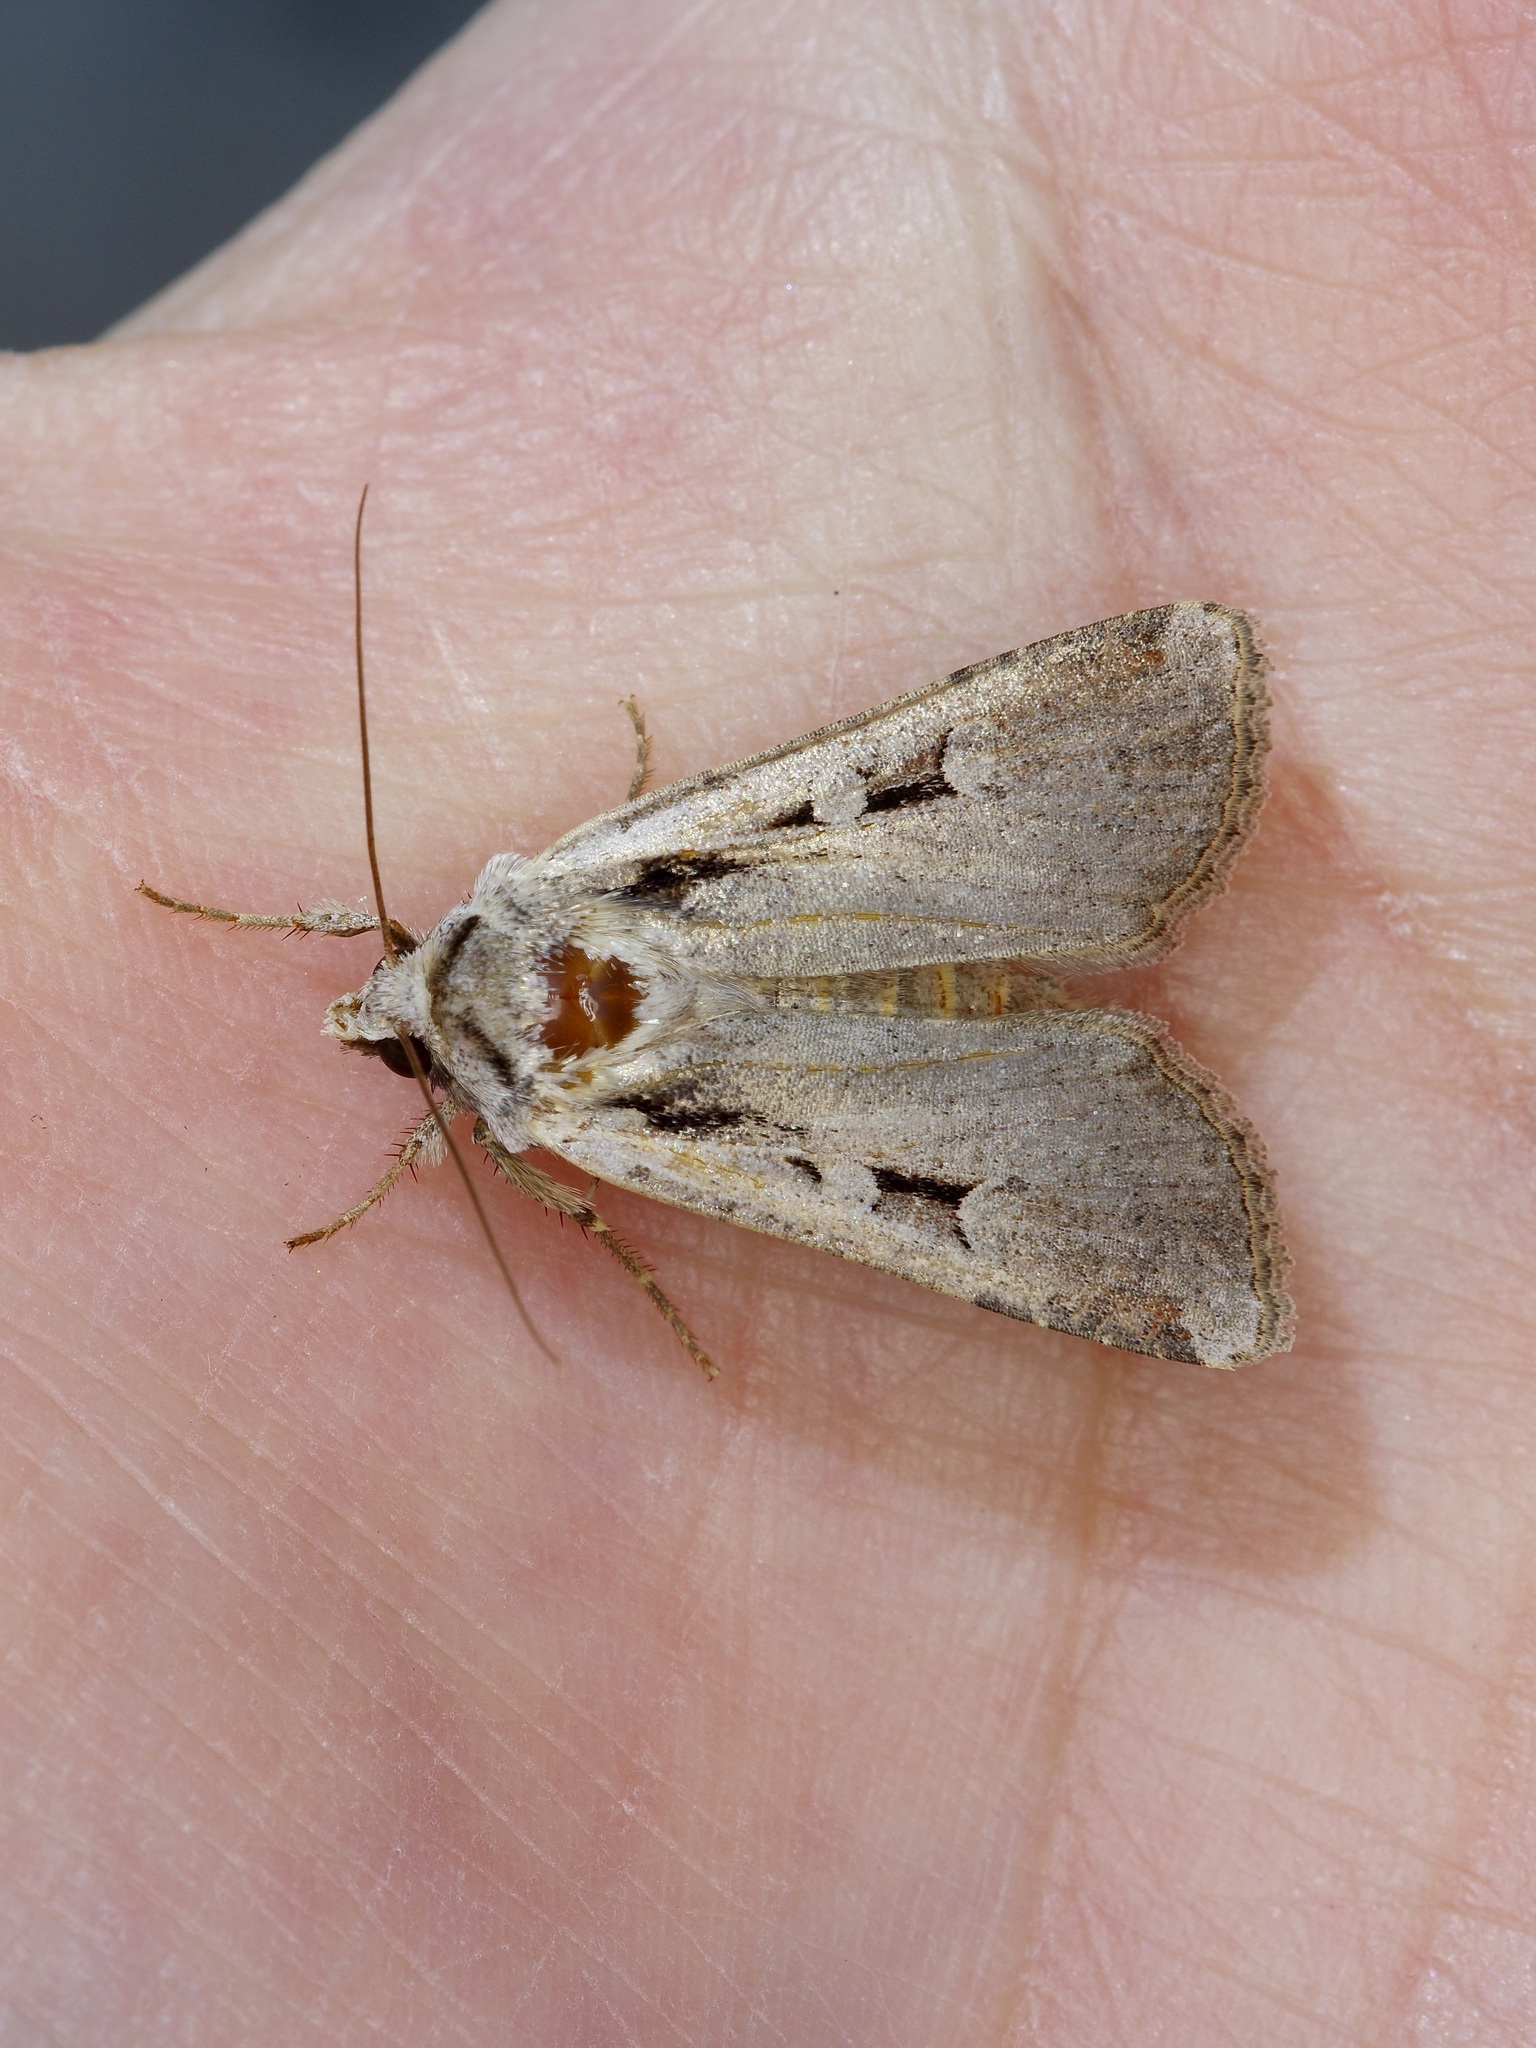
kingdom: Animalia
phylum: Arthropoda
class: Insecta
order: Lepidoptera
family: Noctuidae
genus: Hemieuxoa
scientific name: Hemieuxoa rudens
